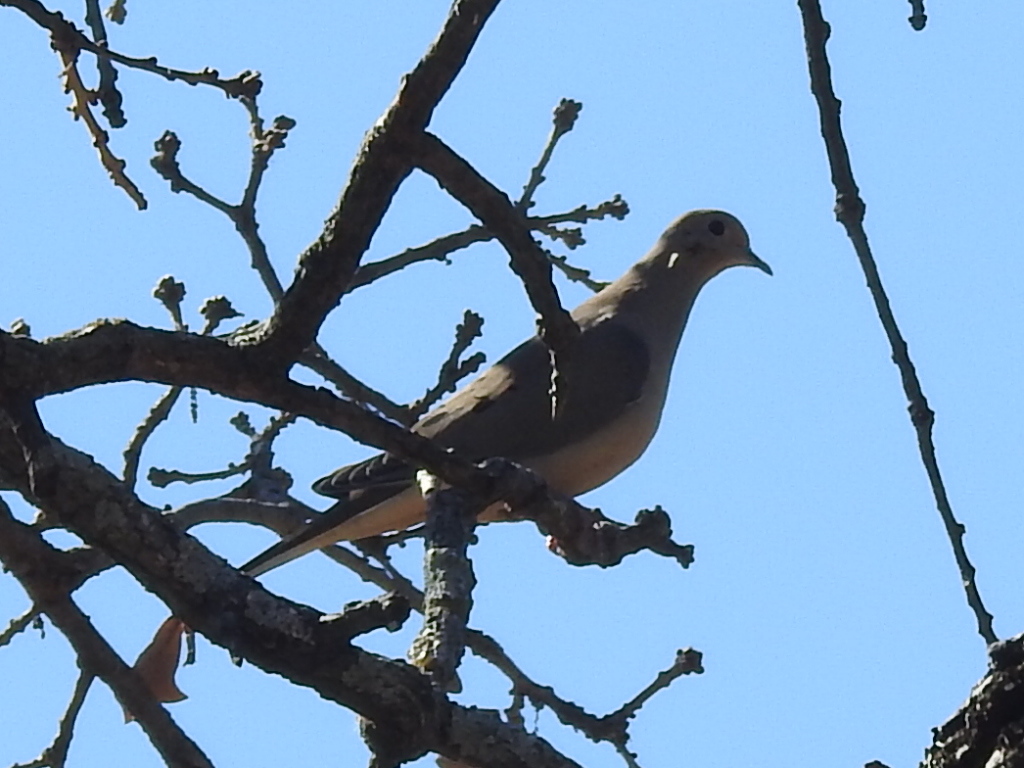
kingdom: Animalia
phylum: Chordata
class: Aves
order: Columbiformes
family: Columbidae
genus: Zenaida
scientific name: Zenaida macroura
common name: Mourning dove
